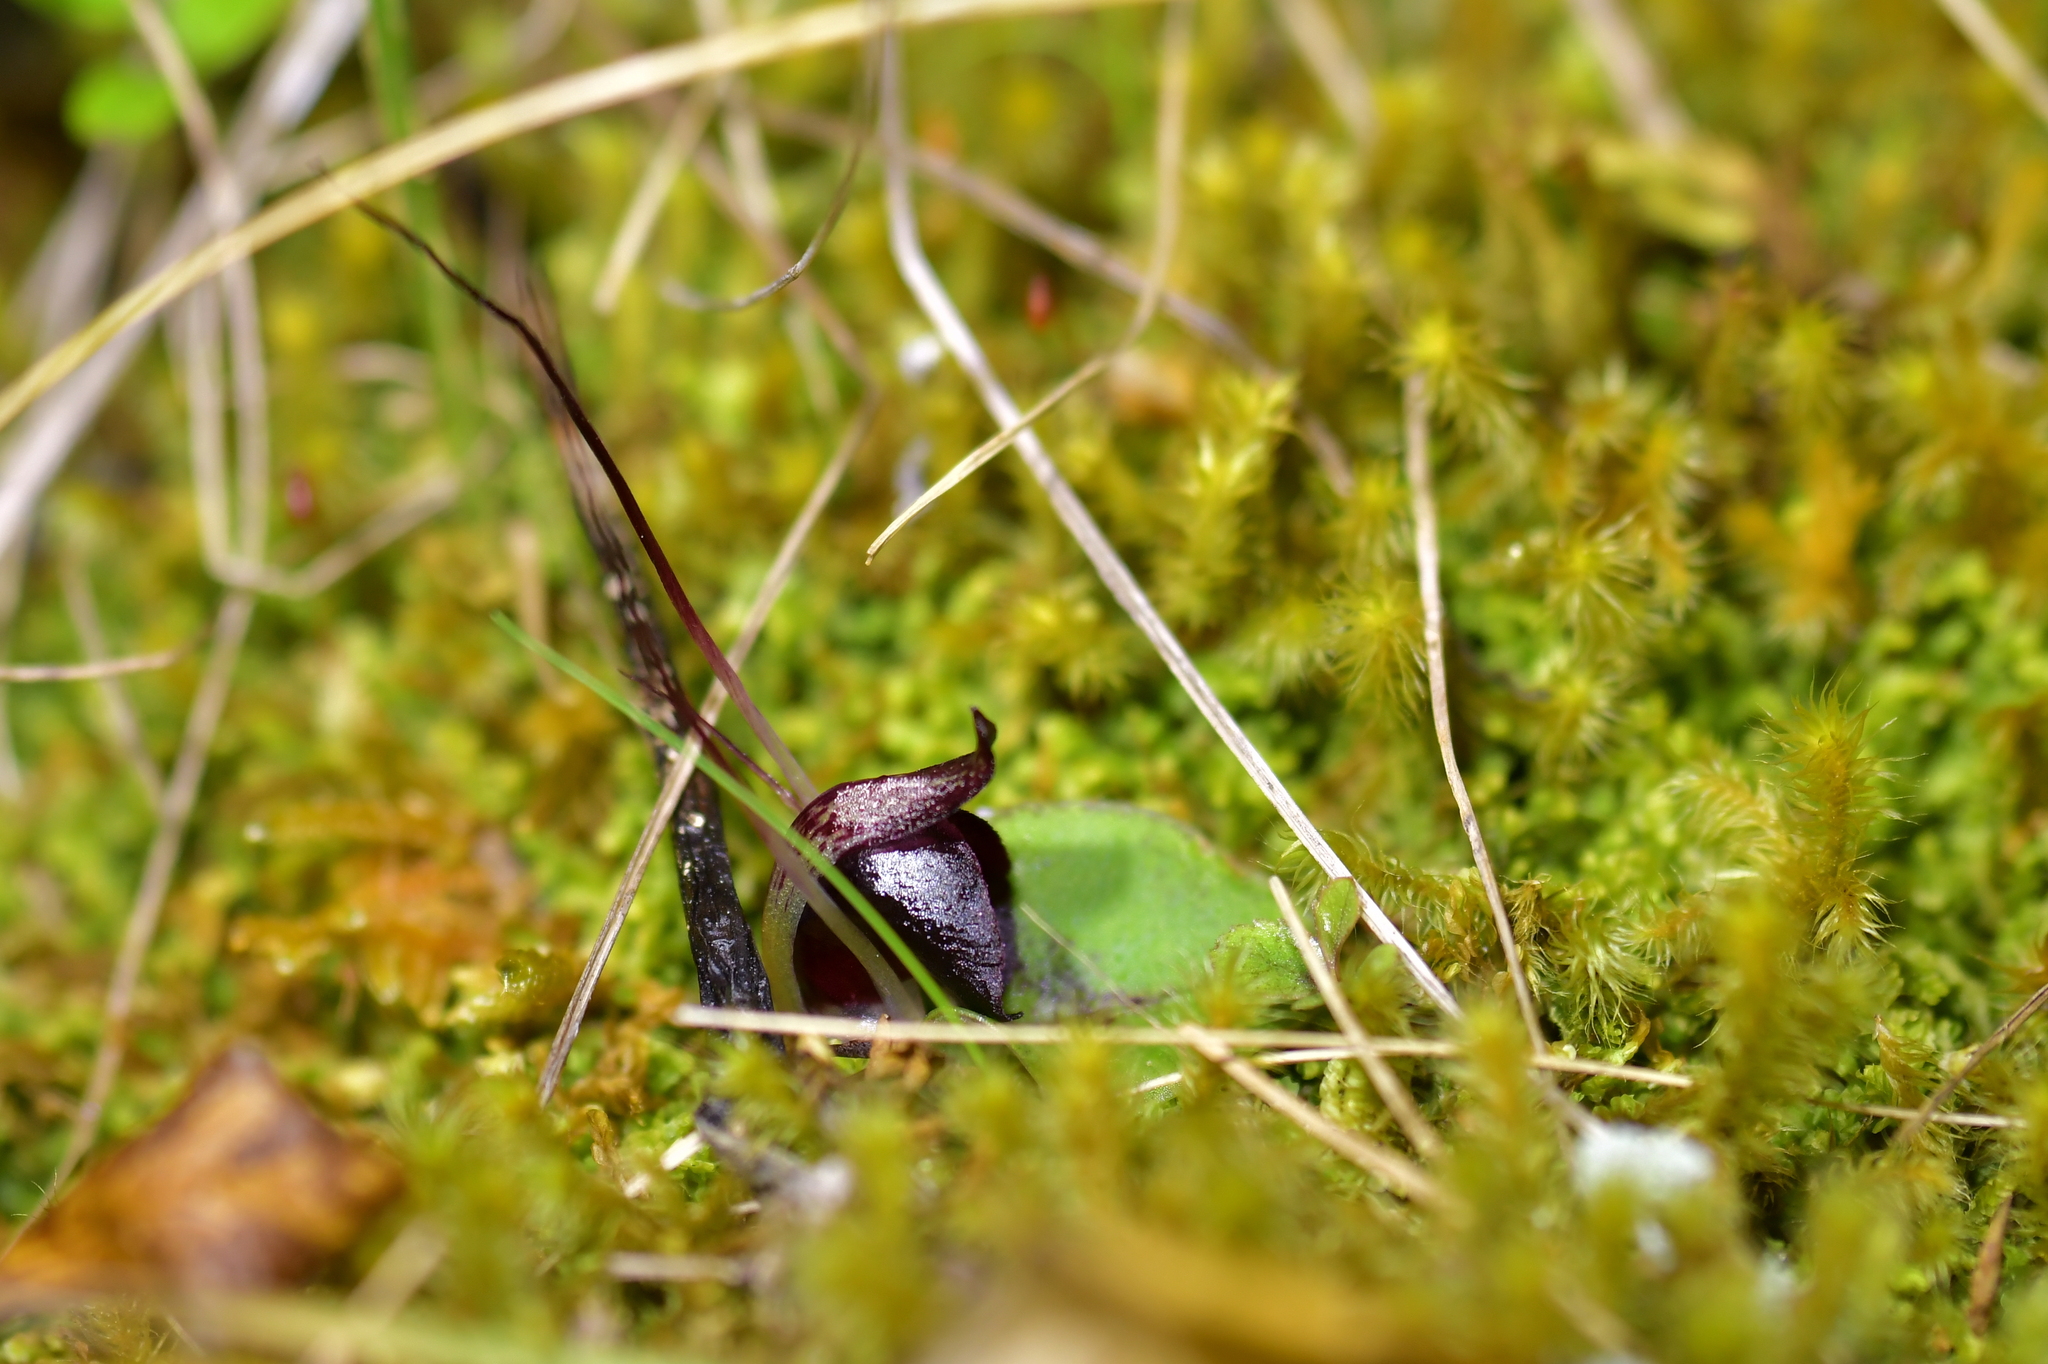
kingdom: Plantae
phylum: Tracheophyta
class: Liliopsida
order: Asparagales
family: Orchidaceae
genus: Corybas
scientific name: Corybas macranthus
